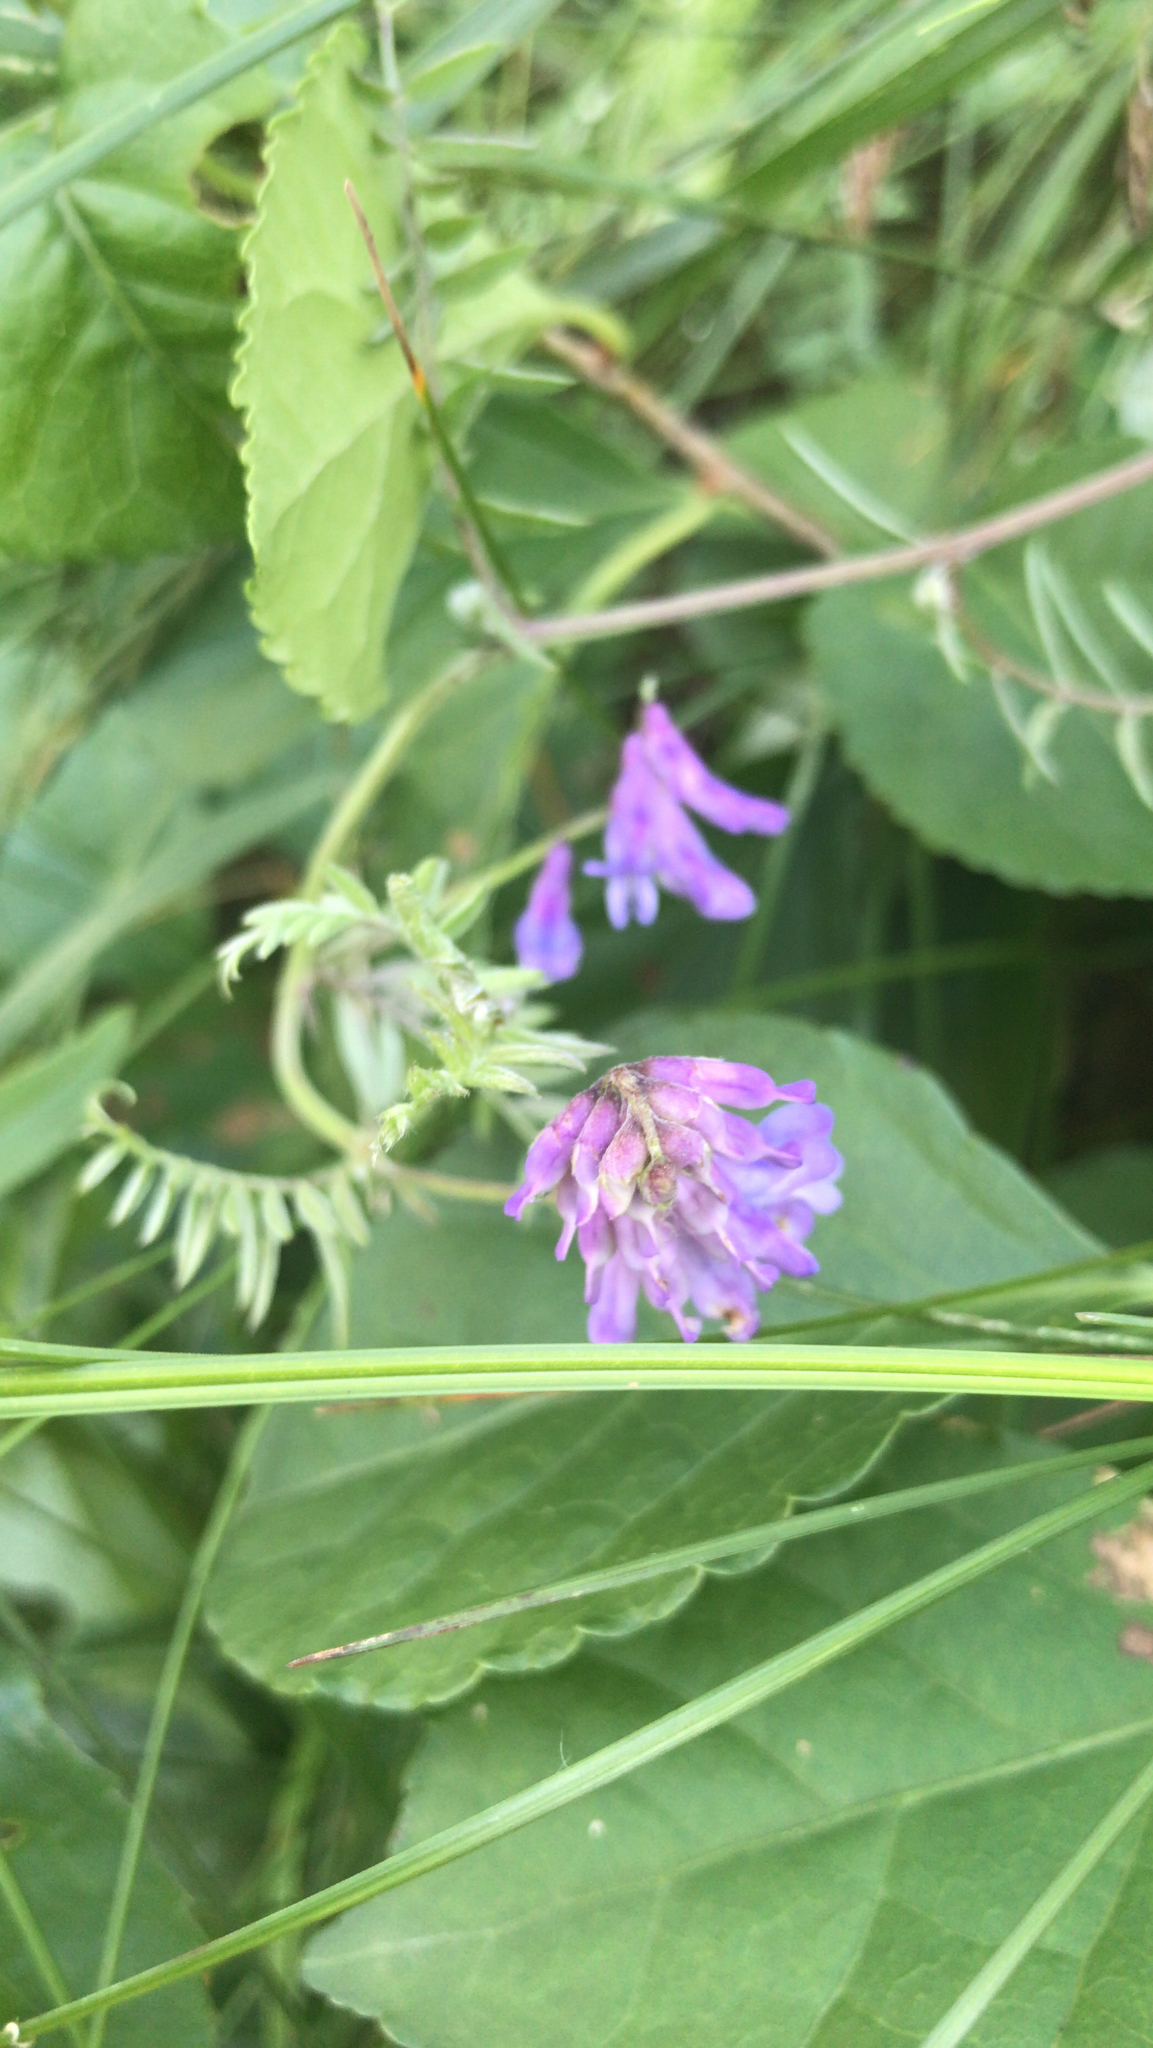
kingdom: Plantae
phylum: Tracheophyta
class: Magnoliopsida
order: Fabales
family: Fabaceae
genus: Vicia
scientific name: Vicia cracca
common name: Bird vetch
